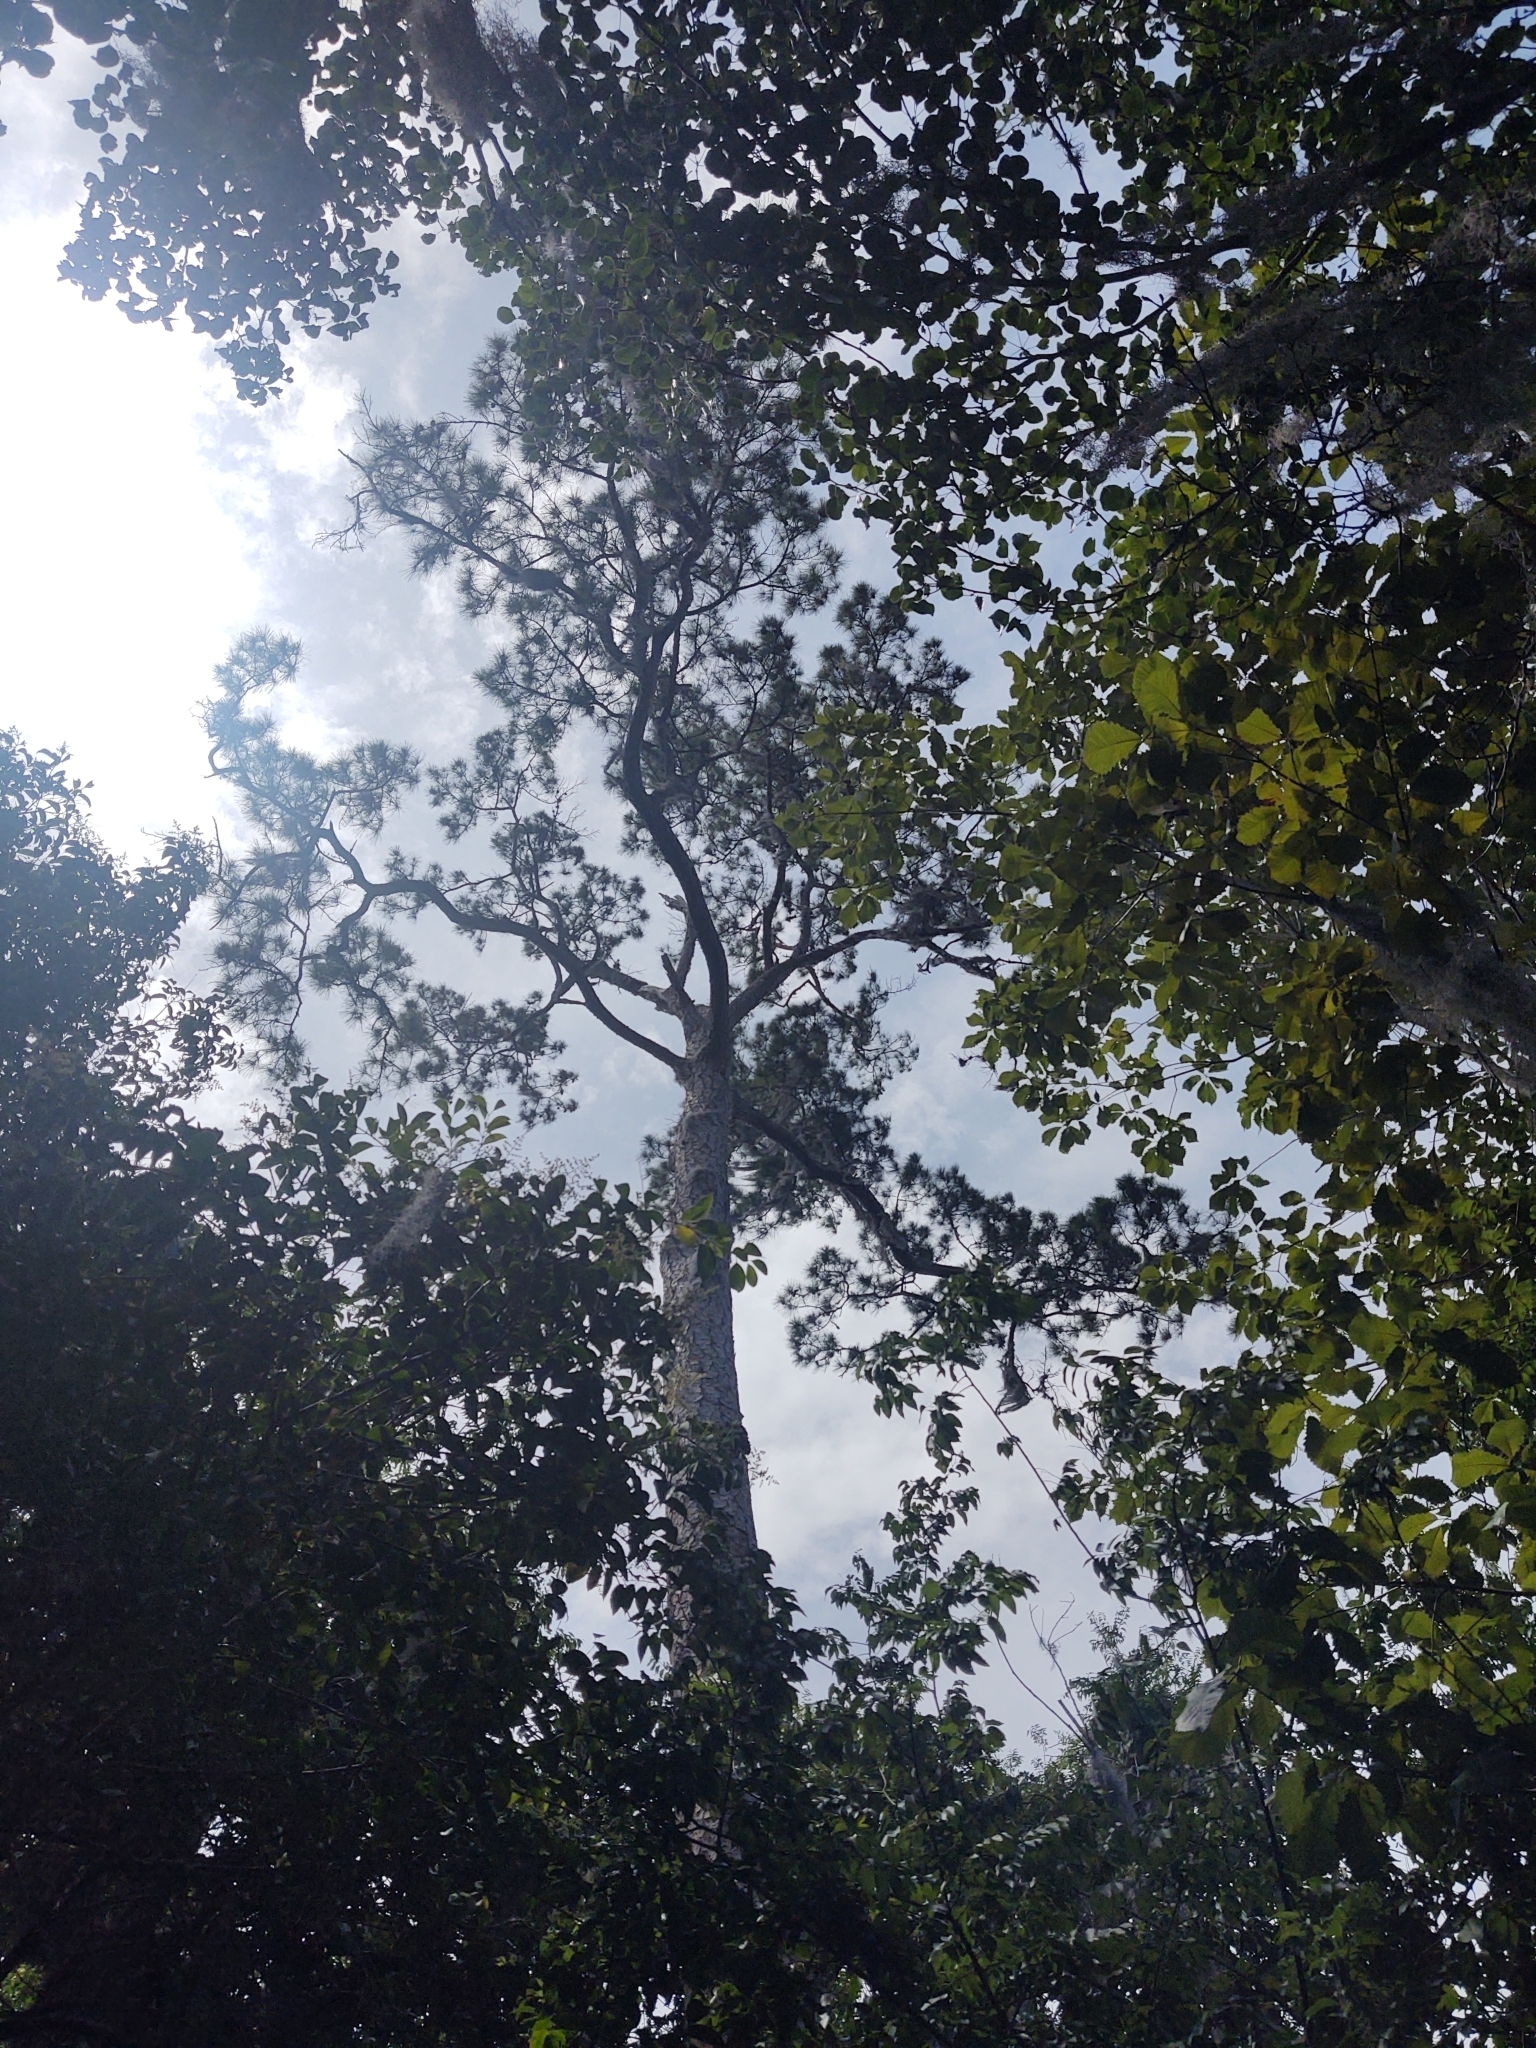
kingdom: Plantae
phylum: Tracheophyta
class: Pinopsida
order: Pinales
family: Pinaceae
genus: Pinus
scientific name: Pinus taeda
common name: Loblolly pine
